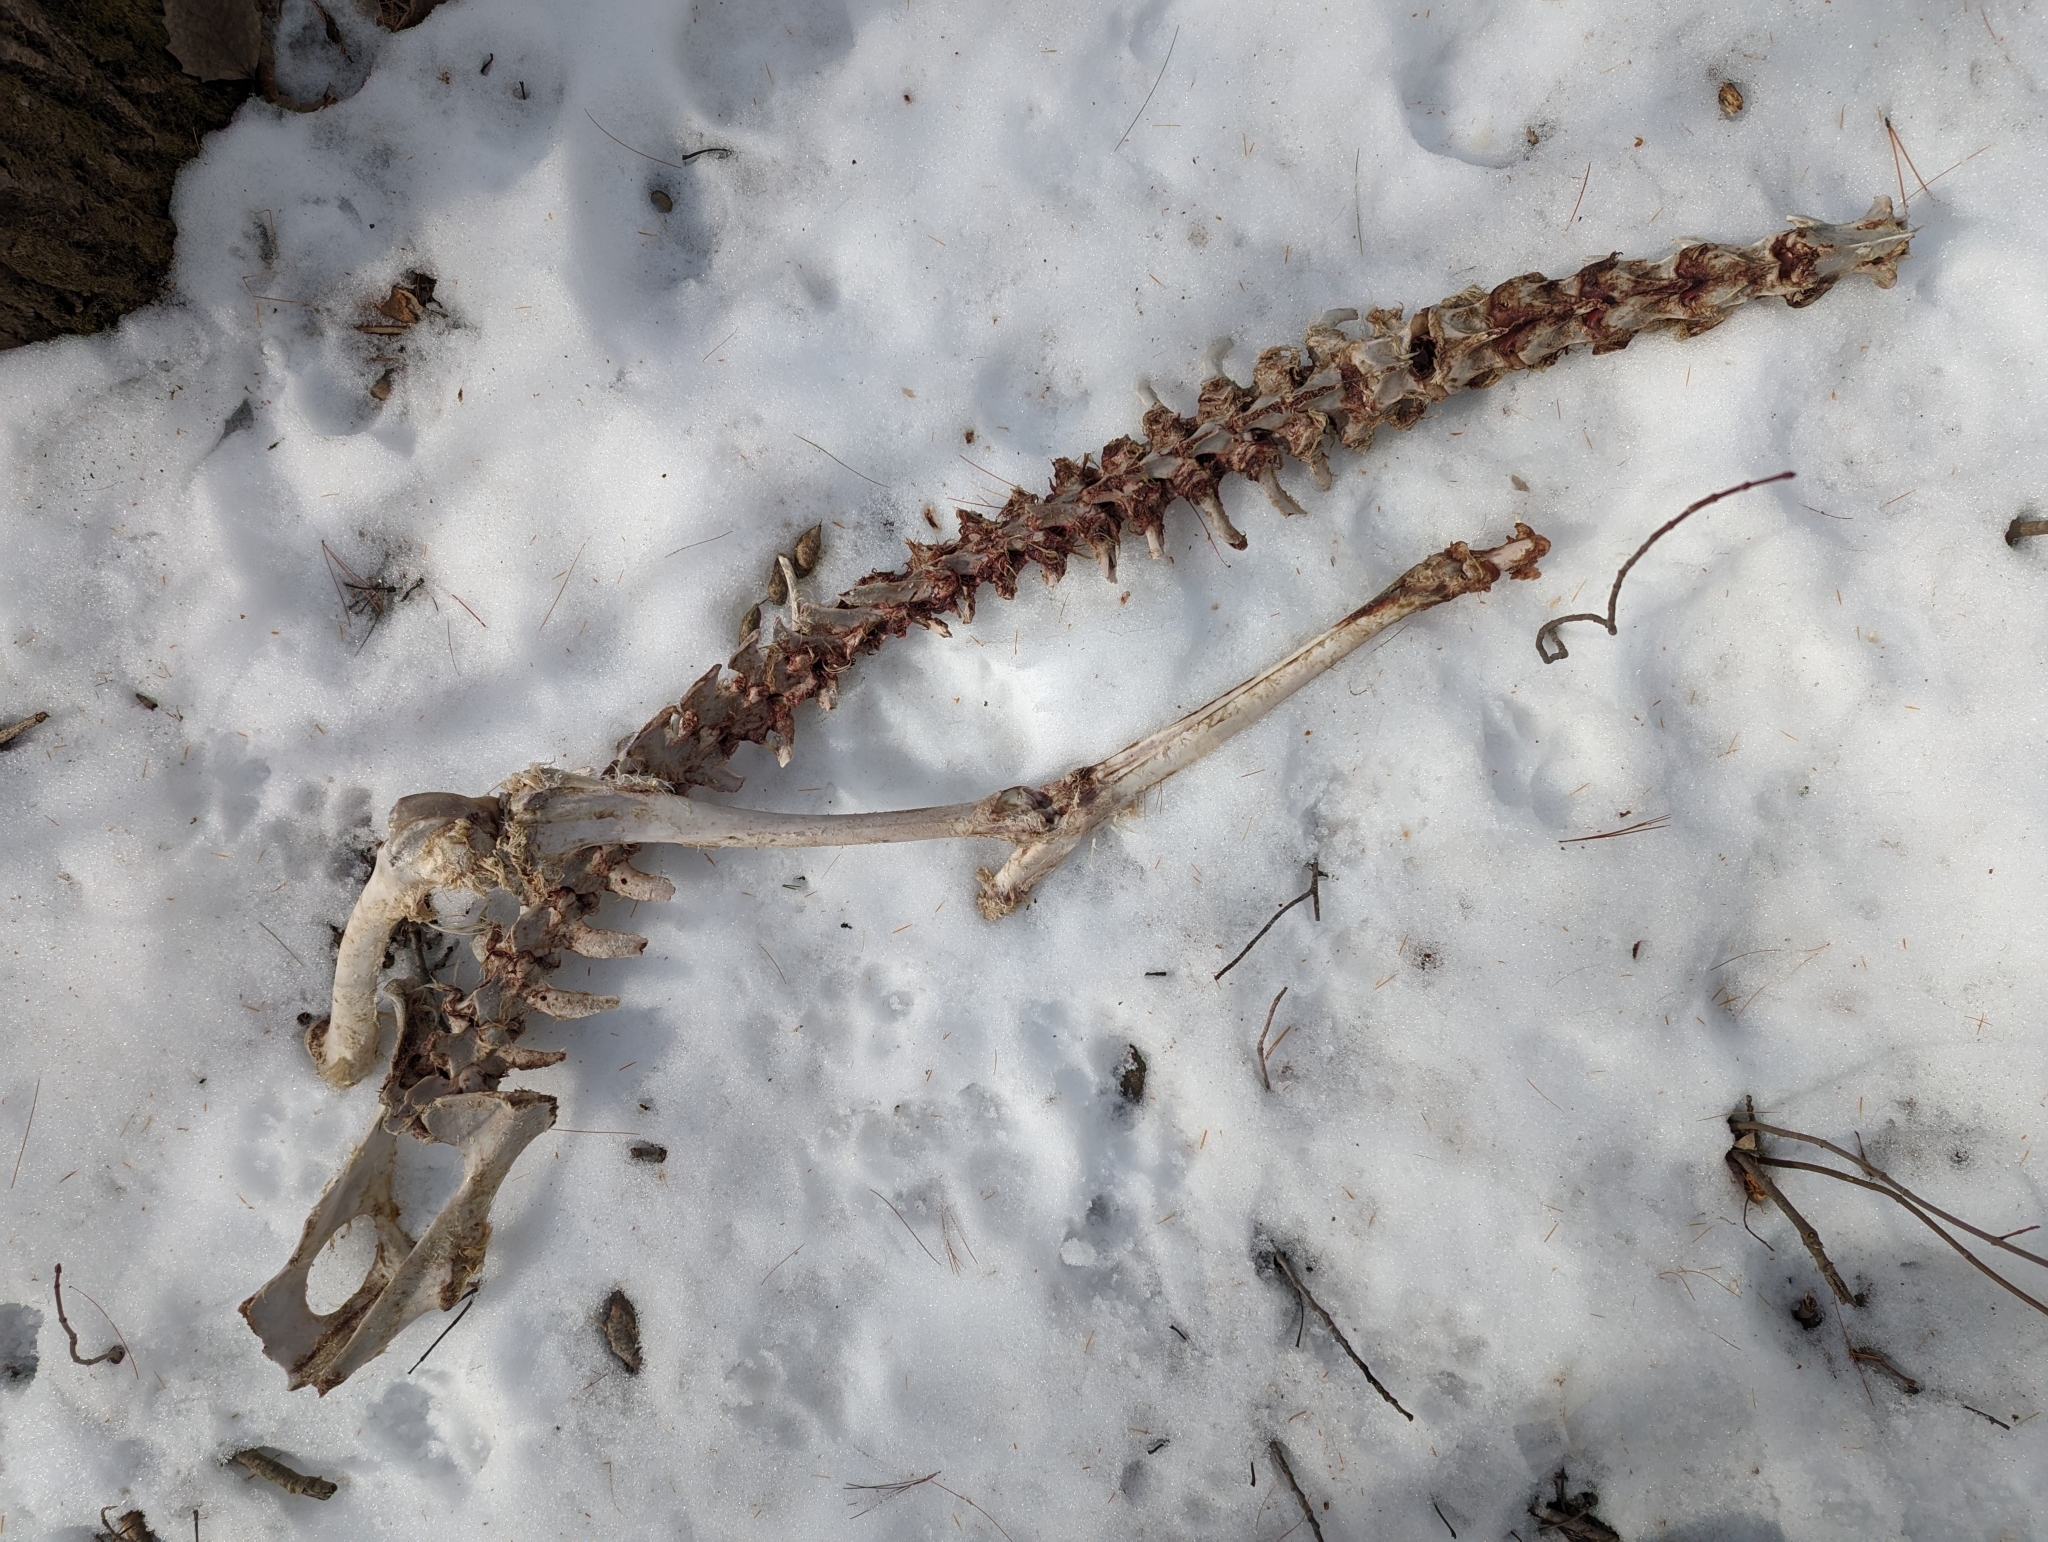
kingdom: Animalia
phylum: Chordata
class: Mammalia
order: Artiodactyla
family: Cervidae
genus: Odocoileus
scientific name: Odocoileus virginianus
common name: White-tailed deer
